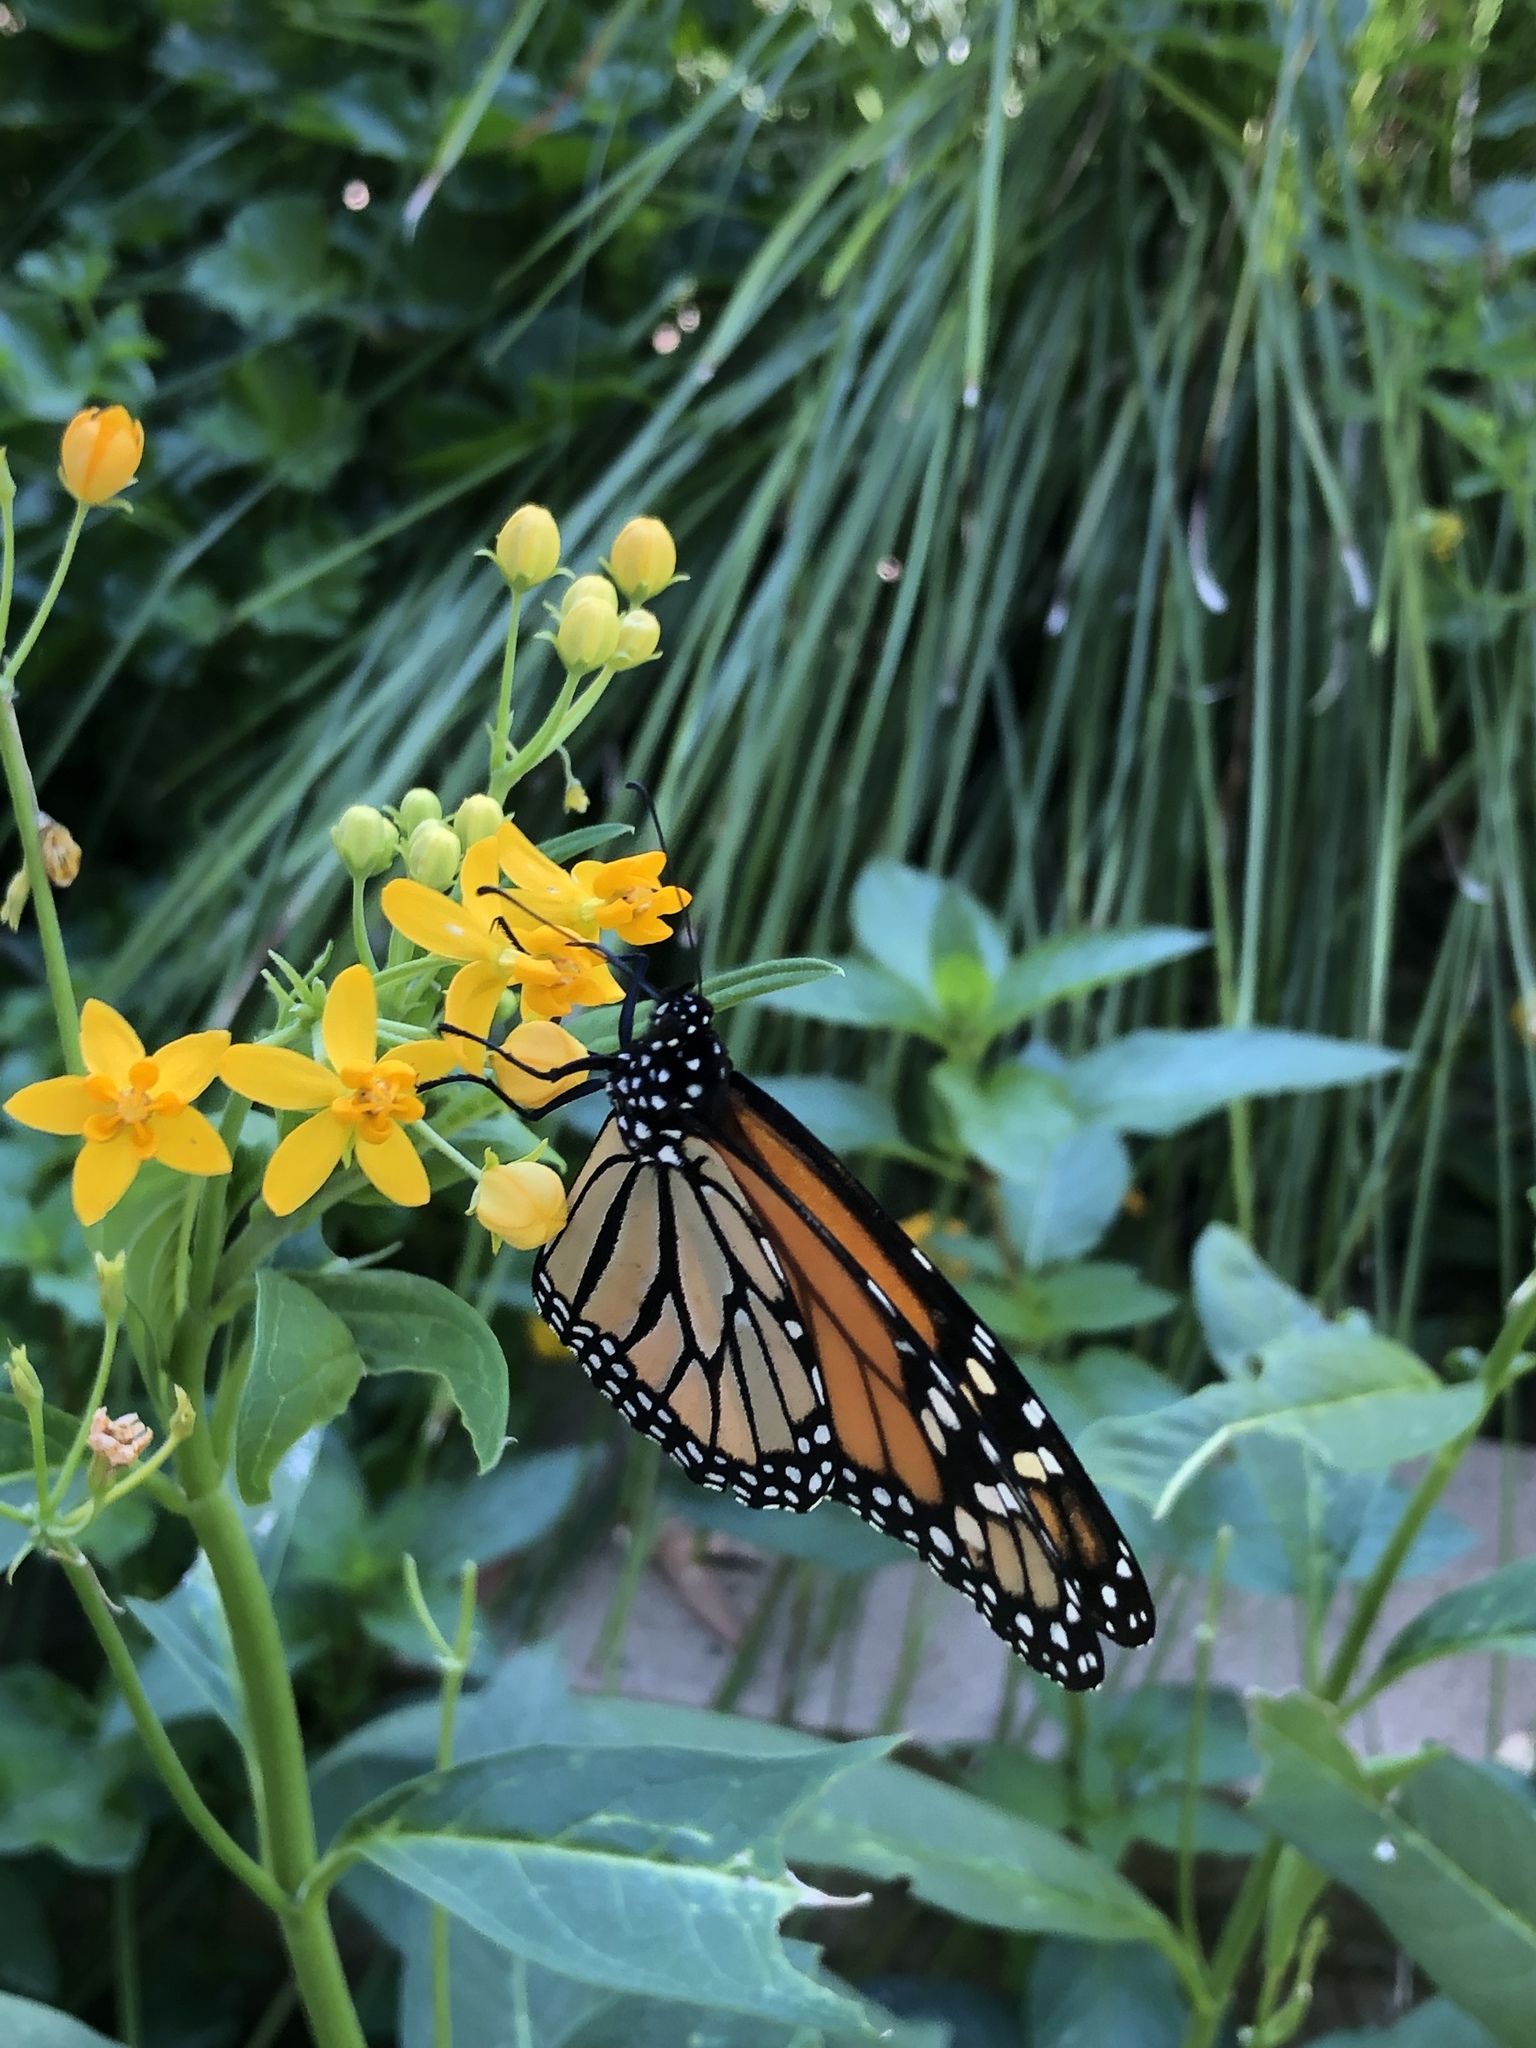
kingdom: Animalia
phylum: Arthropoda
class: Insecta
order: Lepidoptera
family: Nymphalidae
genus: Danaus
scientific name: Danaus plexippus
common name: Monarch
